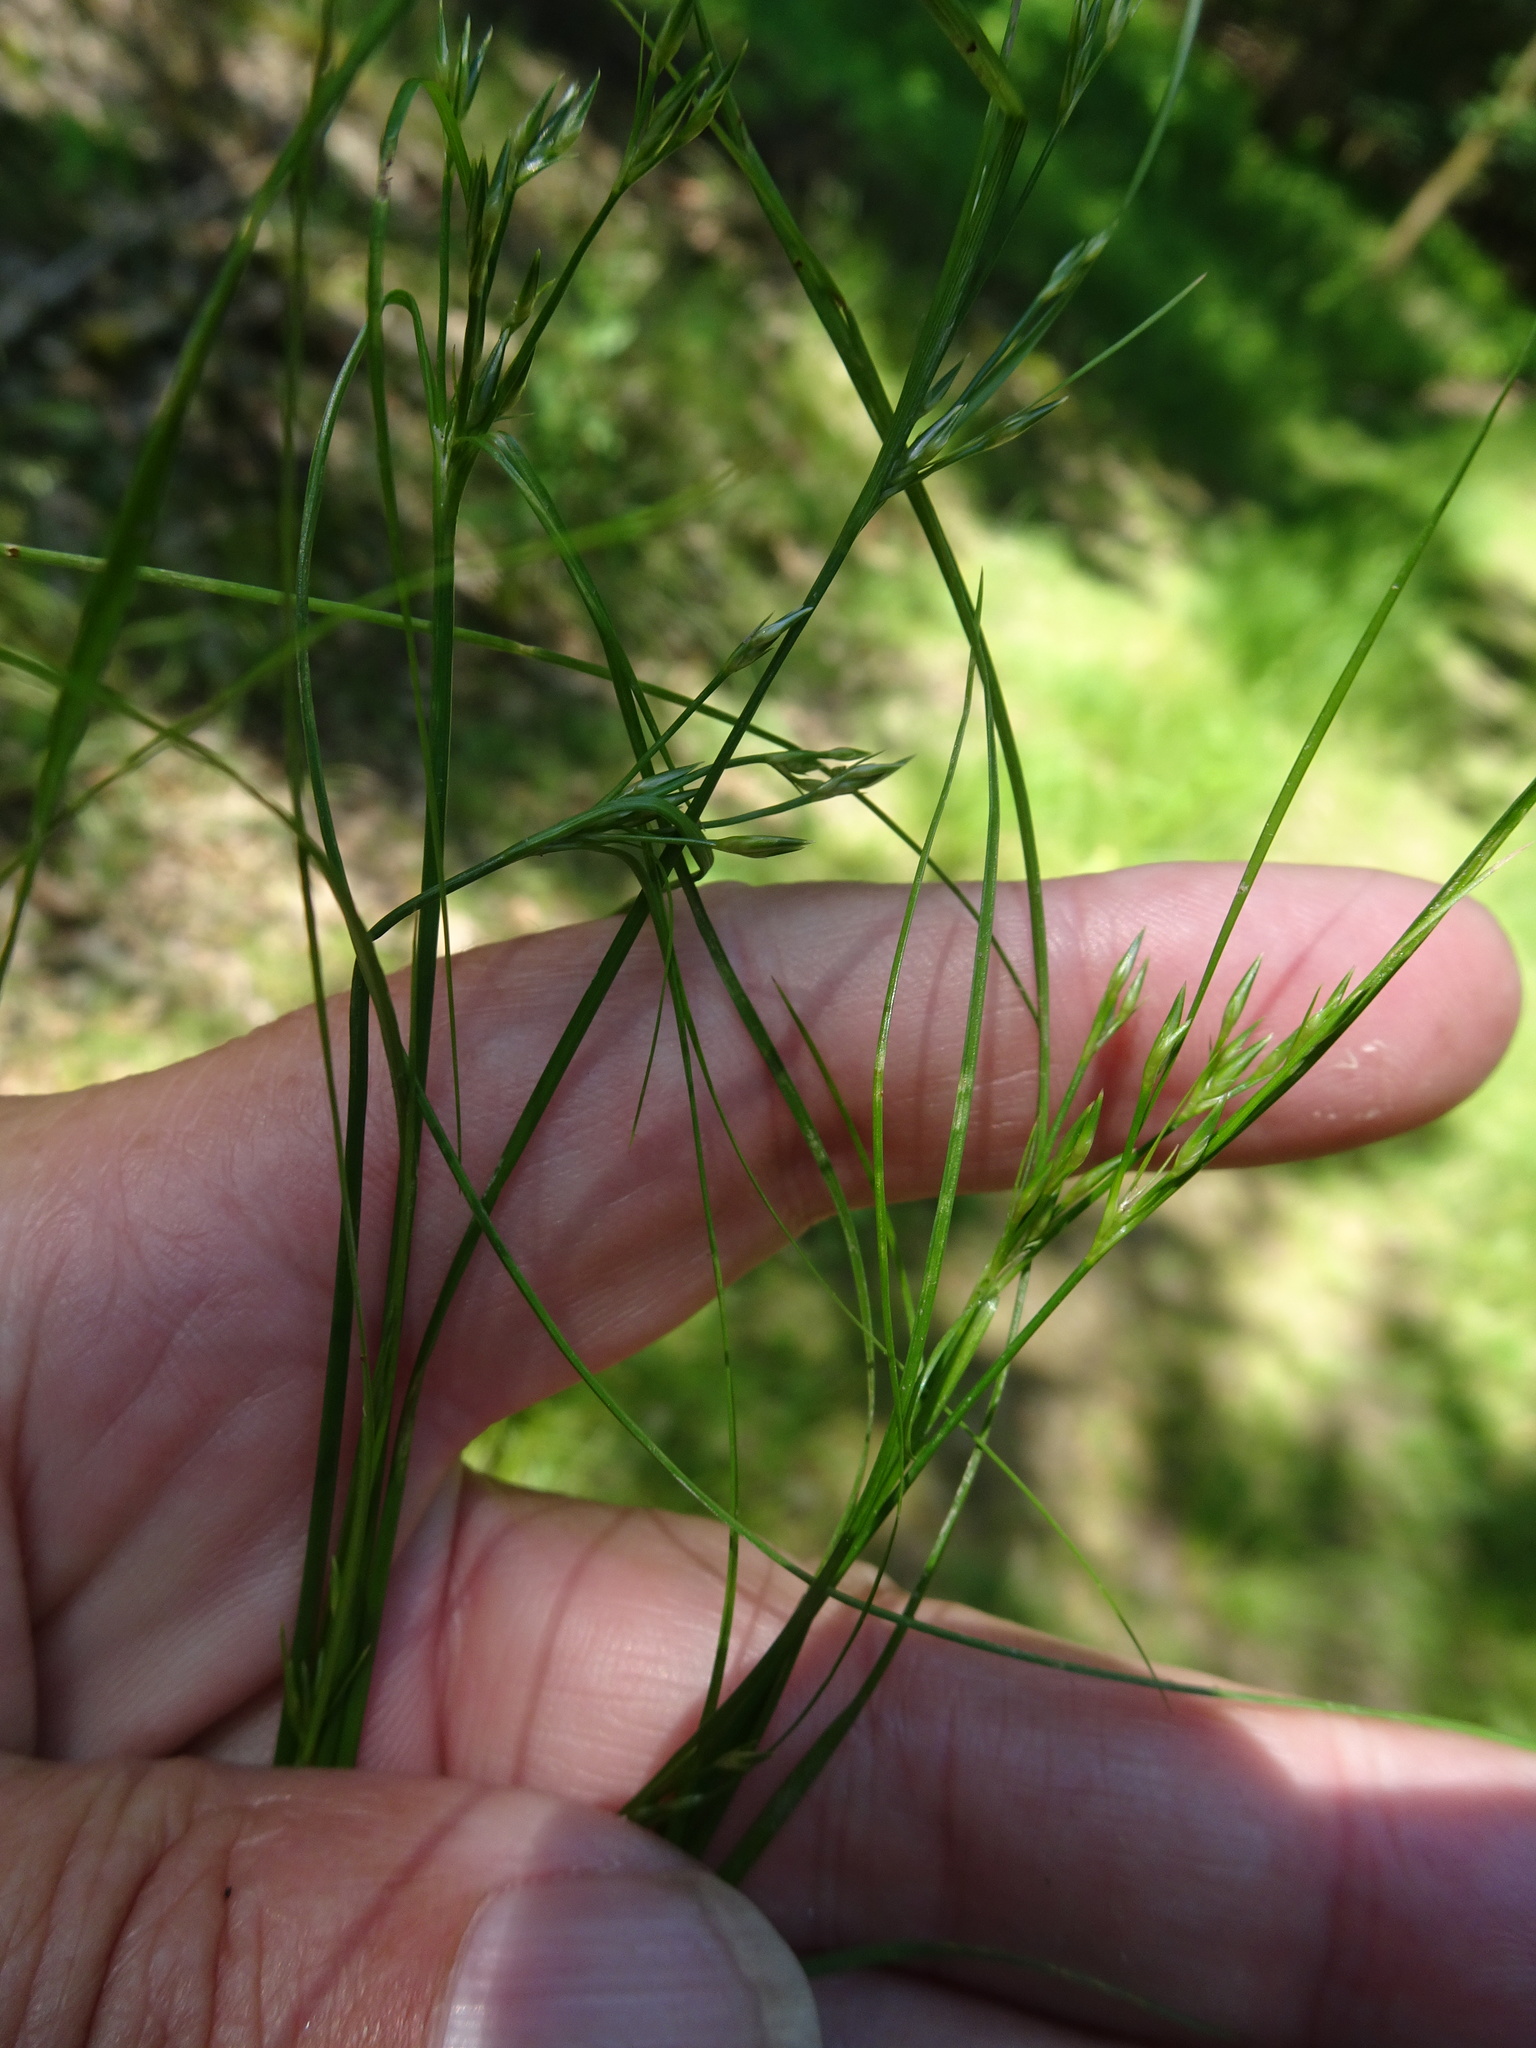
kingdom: Plantae
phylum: Tracheophyta
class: Liliopsida
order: Poales
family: Juncaceae
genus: Juncus
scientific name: Juncus bufonius
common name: Toad rush
